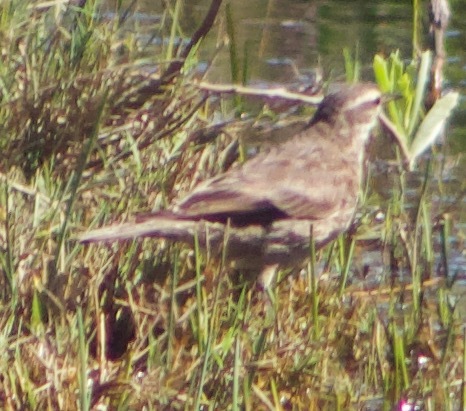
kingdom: Animalia
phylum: Chordata
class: Aves
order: Passeriformes
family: Furnariidae
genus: Cinclodes
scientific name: Cinclodes fuscus
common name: Buff-winged cinclodes
